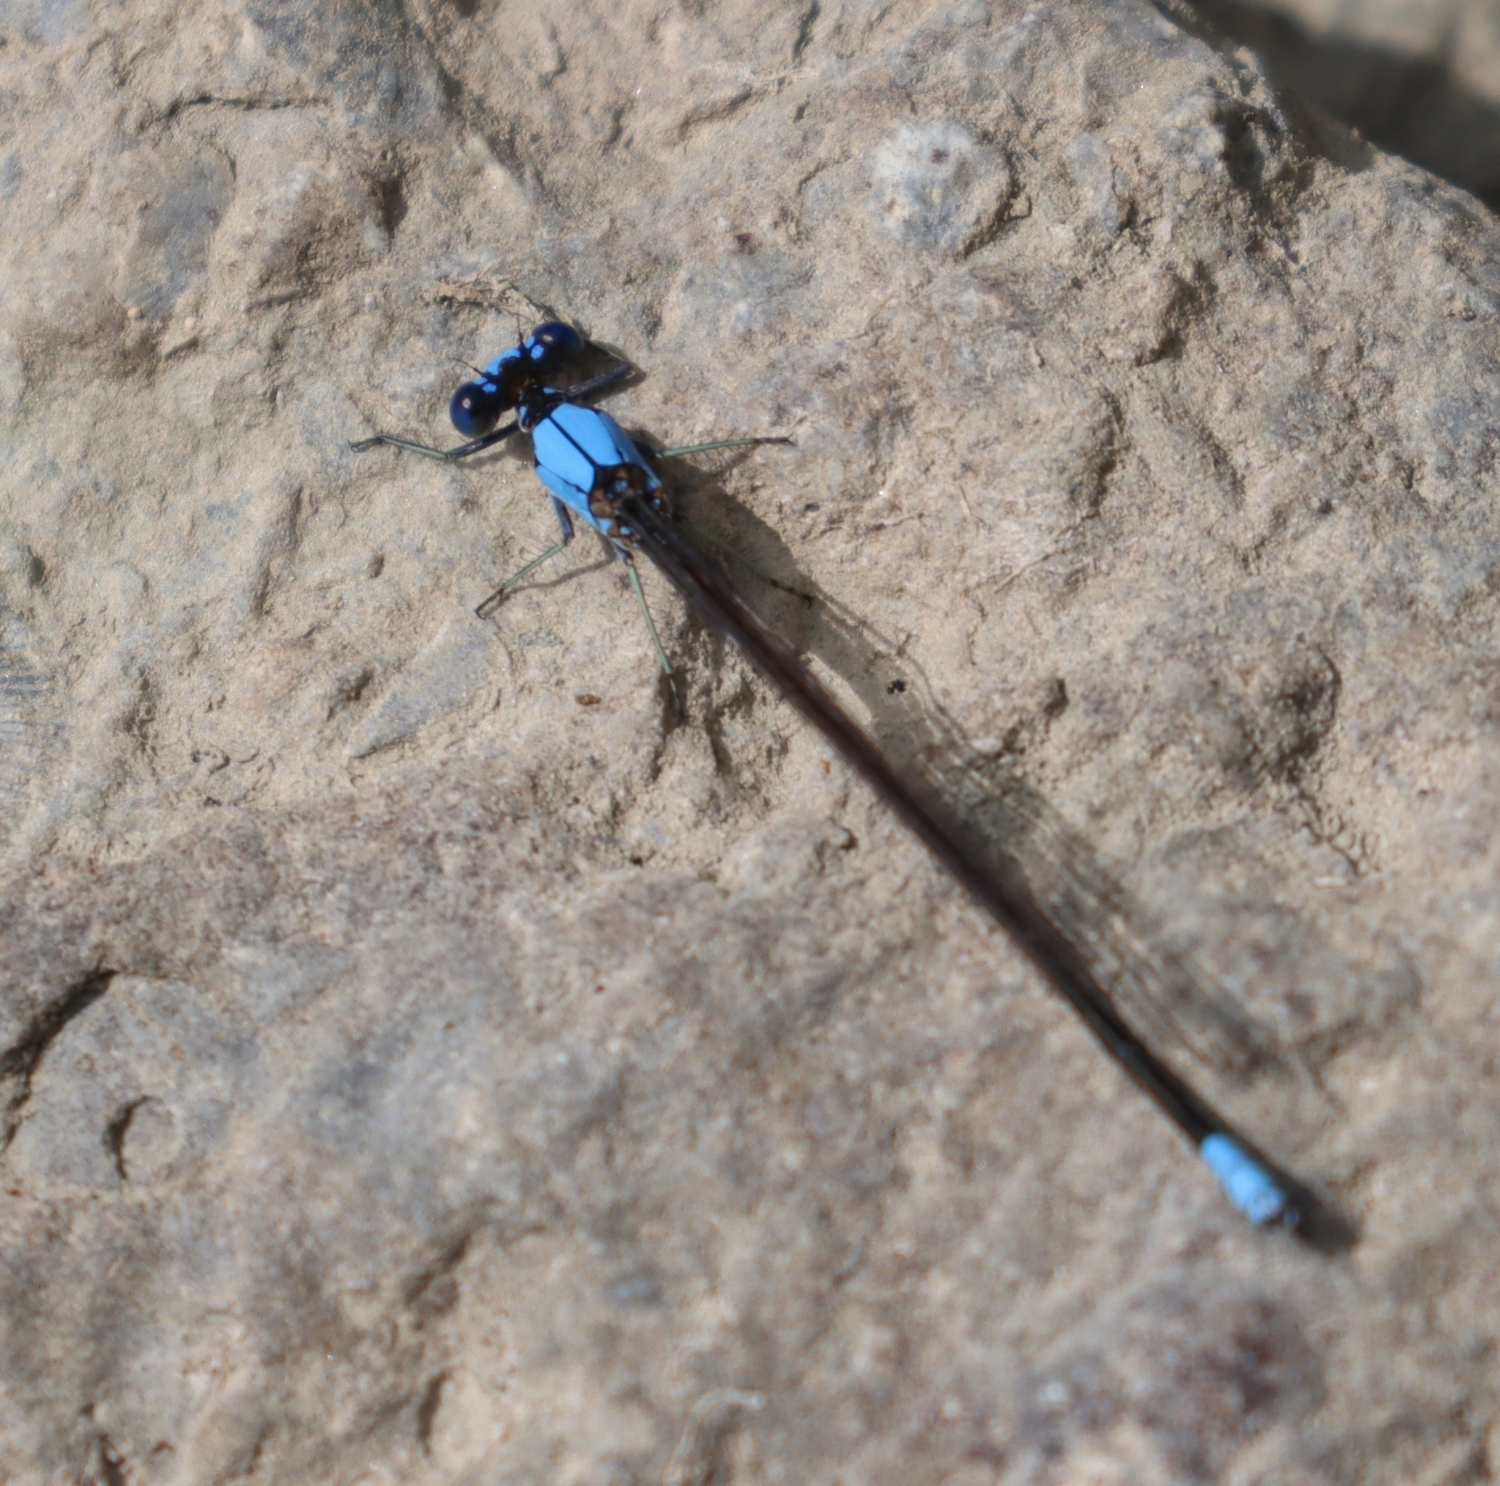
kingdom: Animalia
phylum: Arthropoda
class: Insecta
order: Odonata
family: Coenagrionidae
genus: Argia
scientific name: Argia apicalis
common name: Blue-fronted dancer
